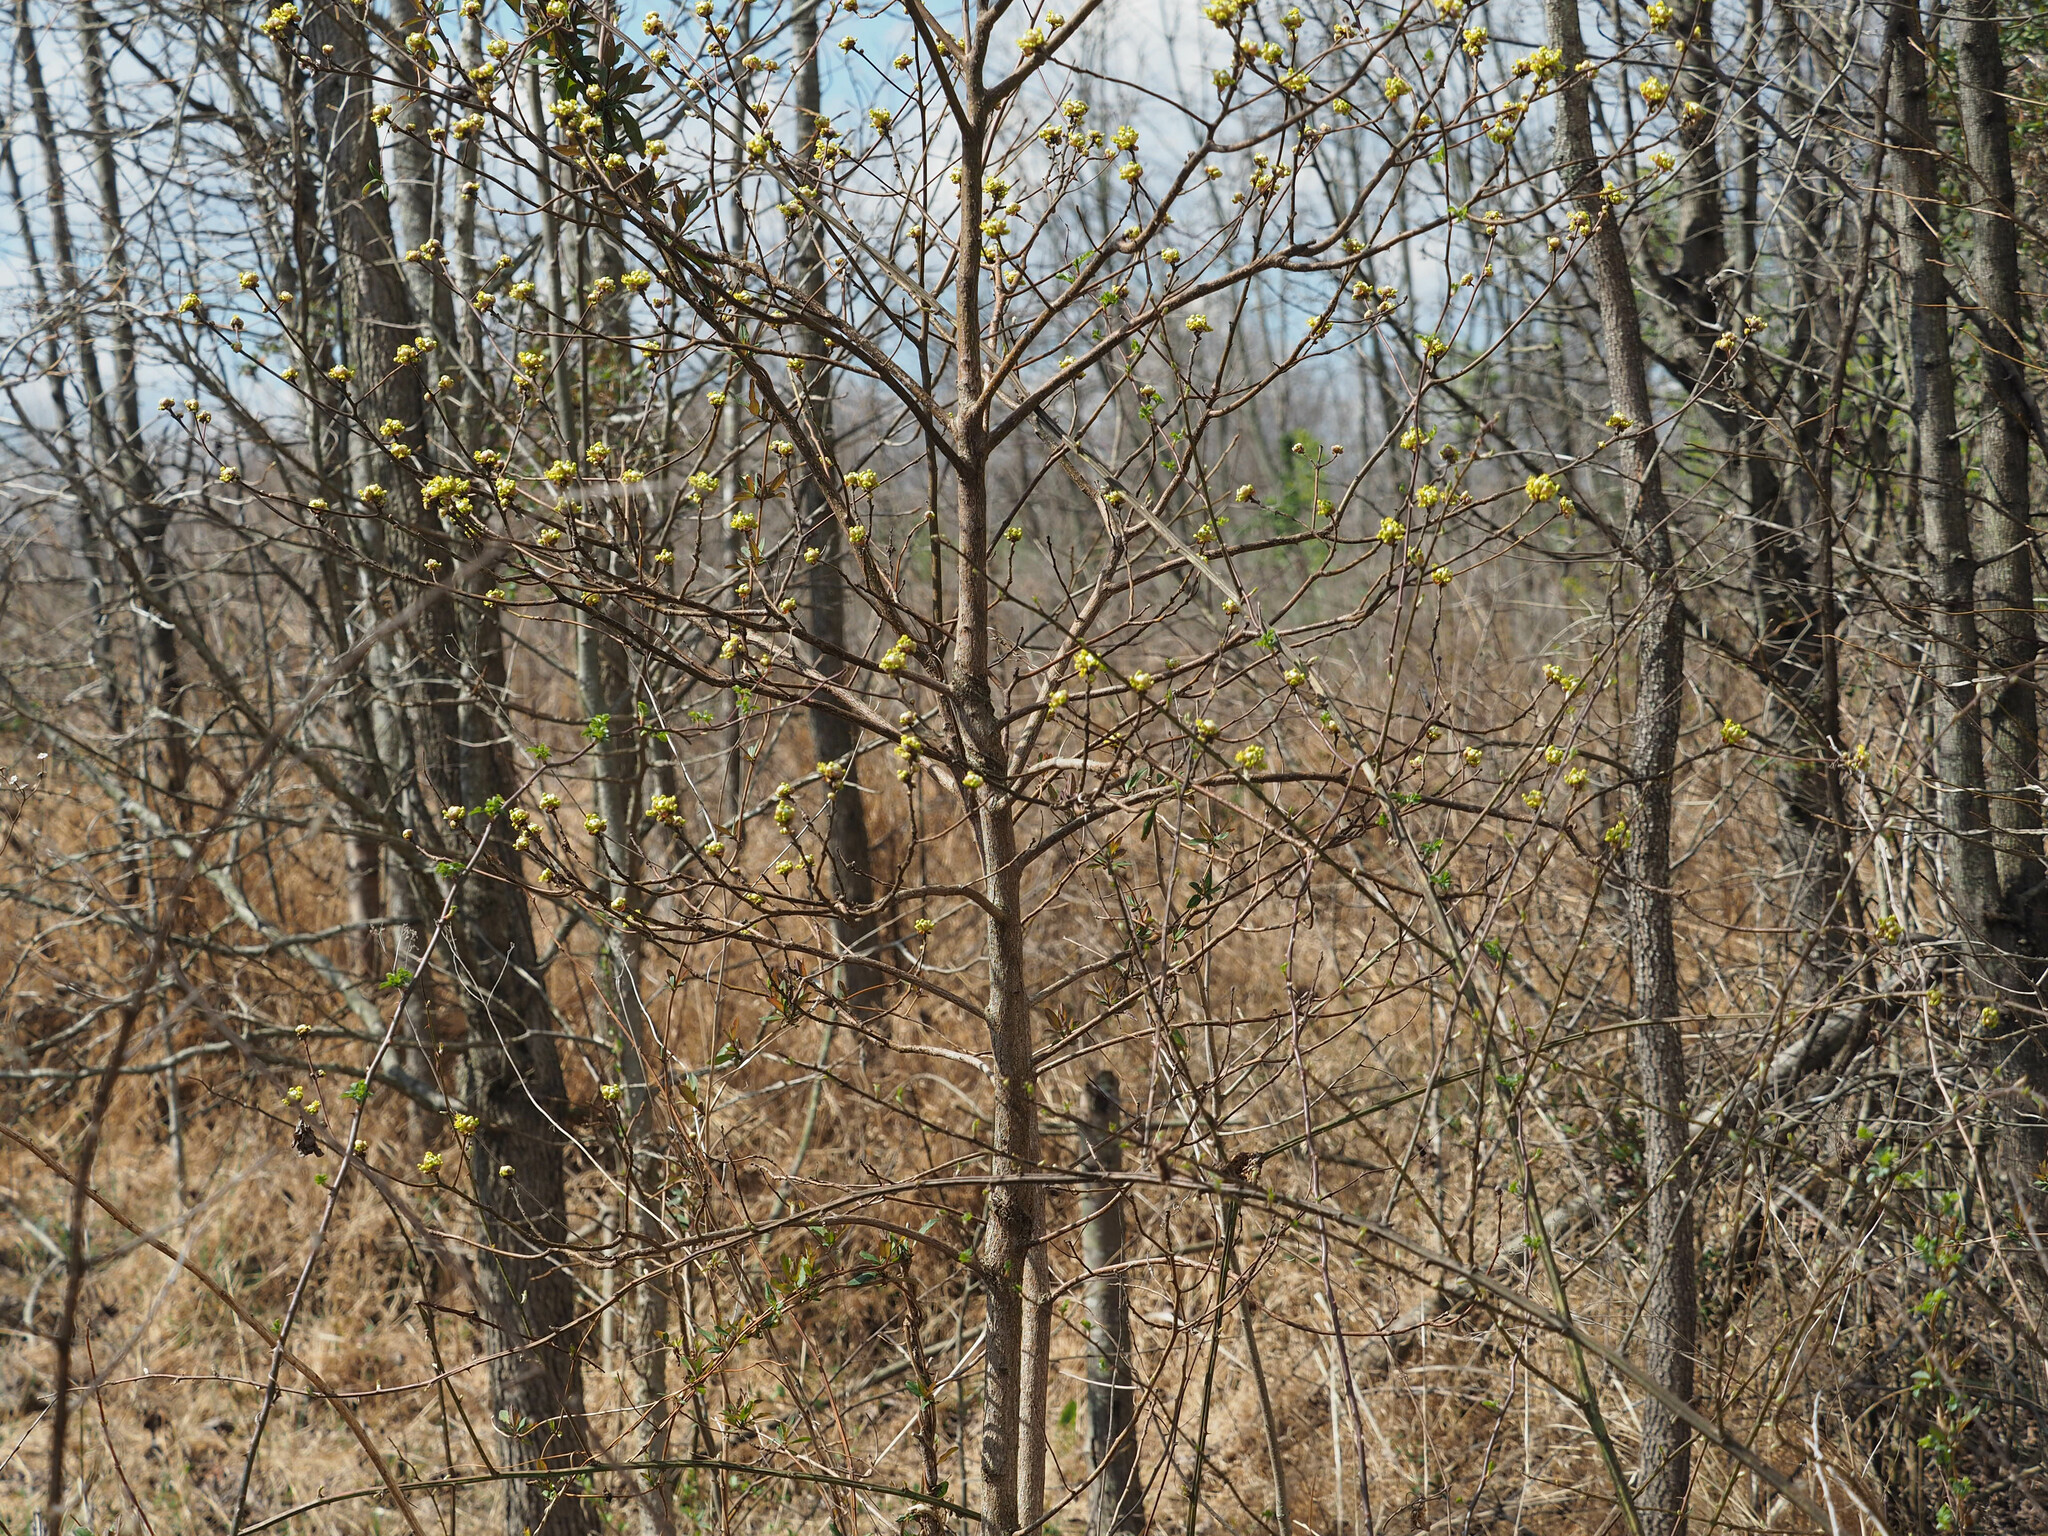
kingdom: Plantae
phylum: Tracheophyta
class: Magnoliopsida
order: Laurales
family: Lauraceae
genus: Sassafras
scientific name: Sassafras albidum
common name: Sassafras
